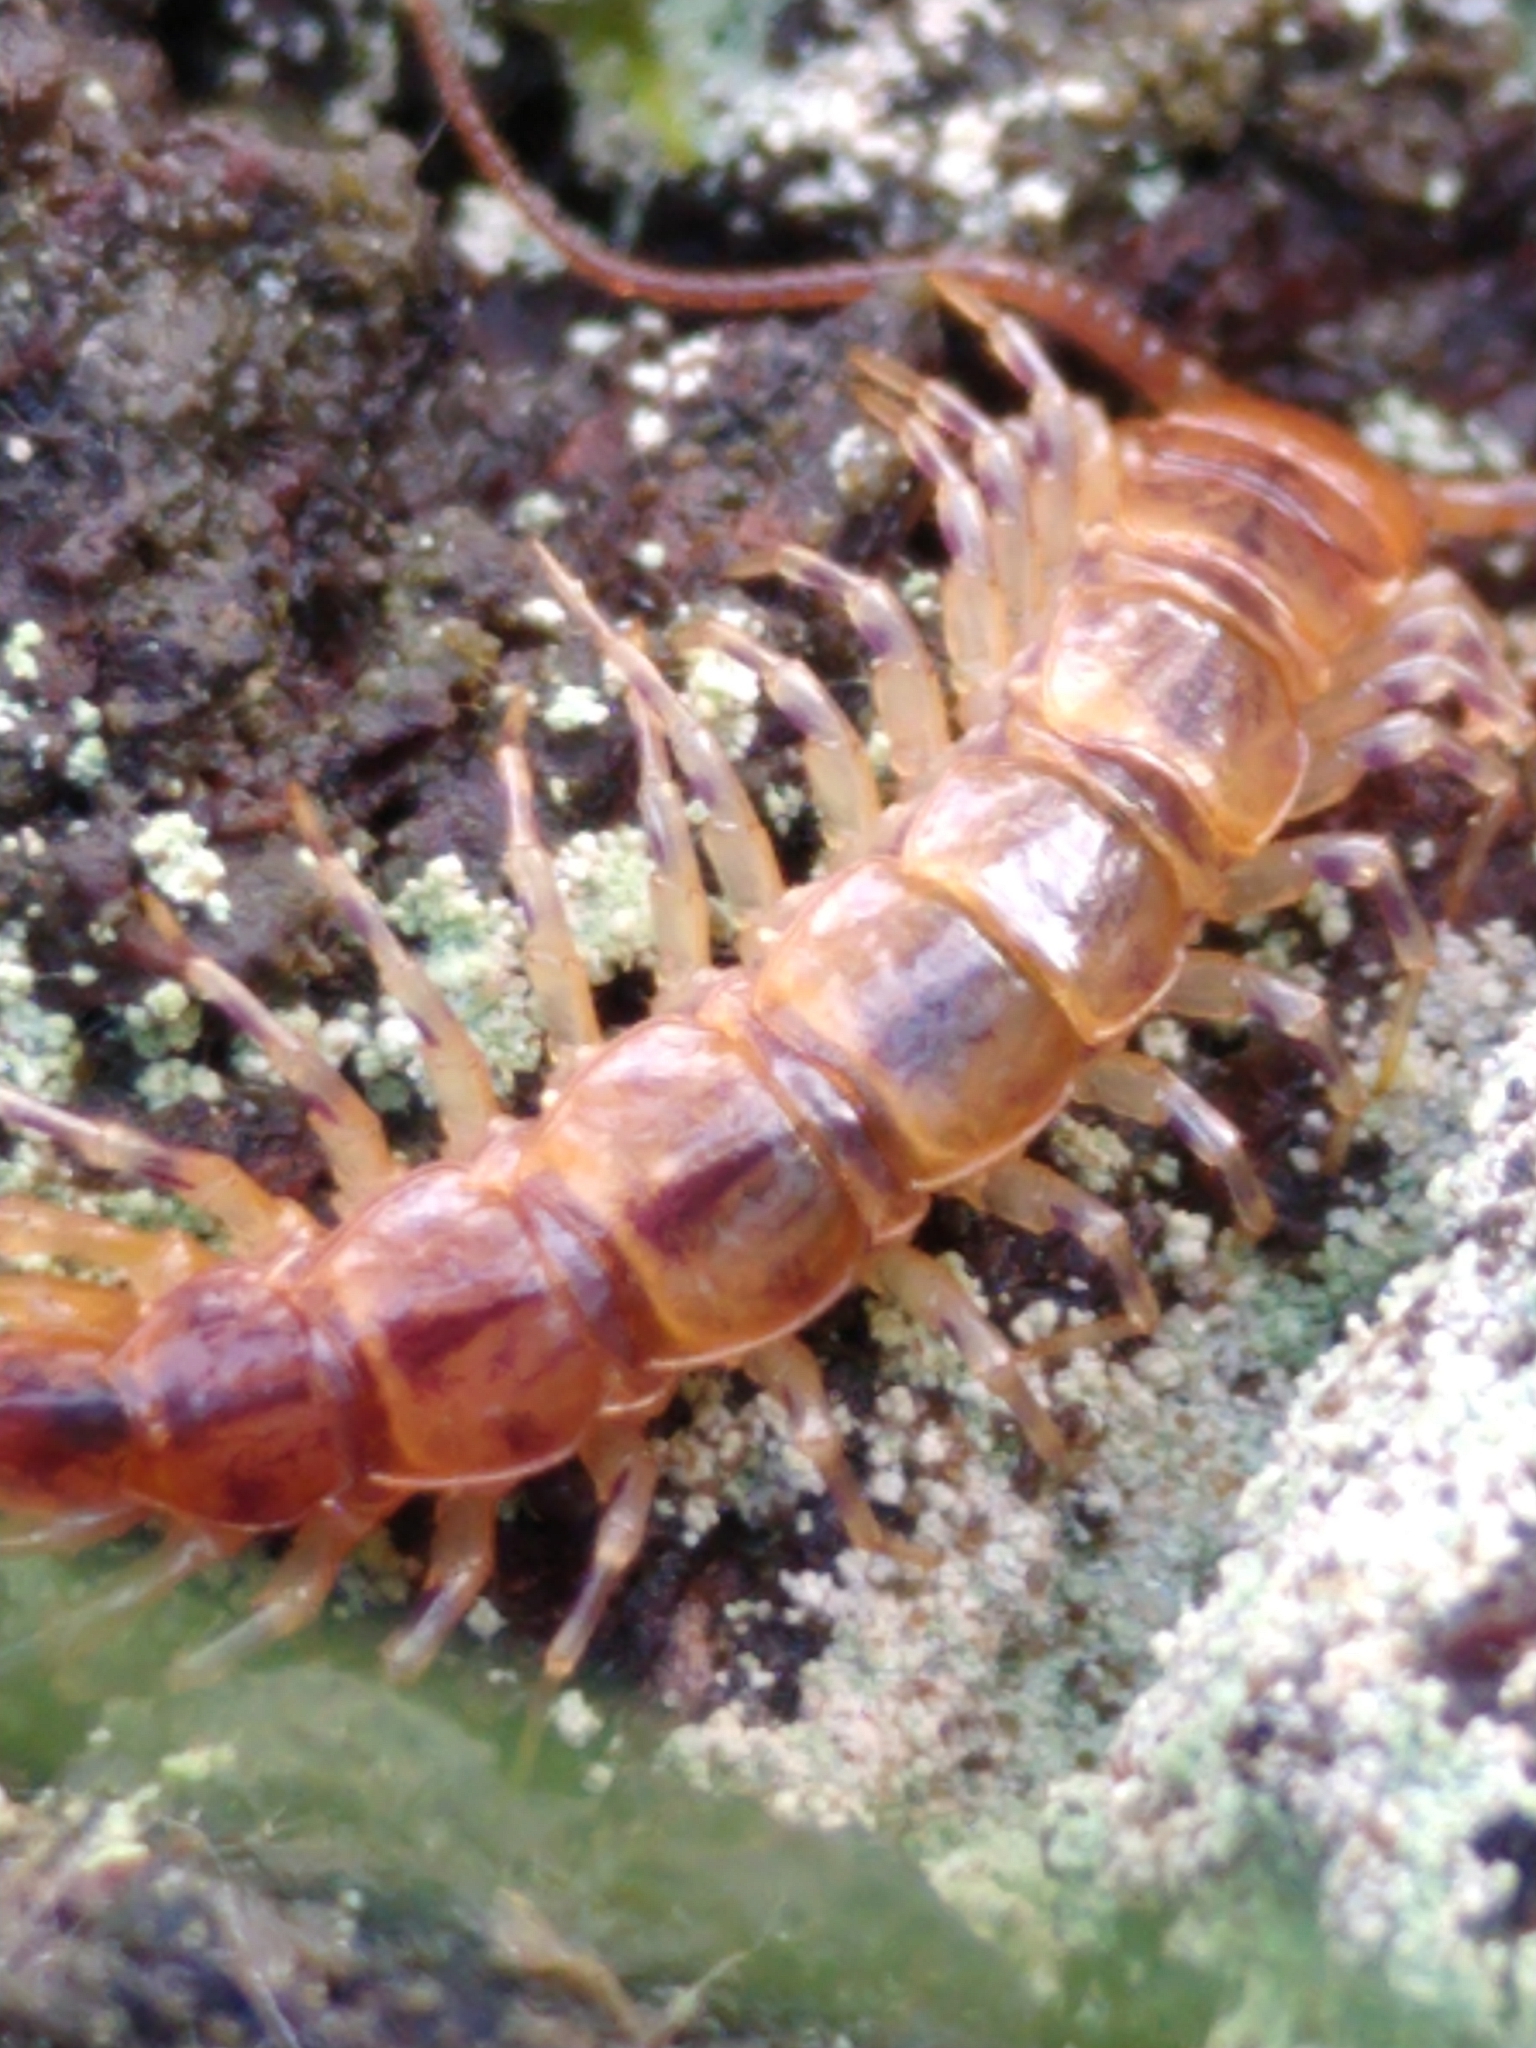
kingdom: Animalia
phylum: Arthropoda
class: Chilopoda
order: Lithobiomorpha
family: Lithobiidae
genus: Lithobius
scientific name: Lithobius variegatus
